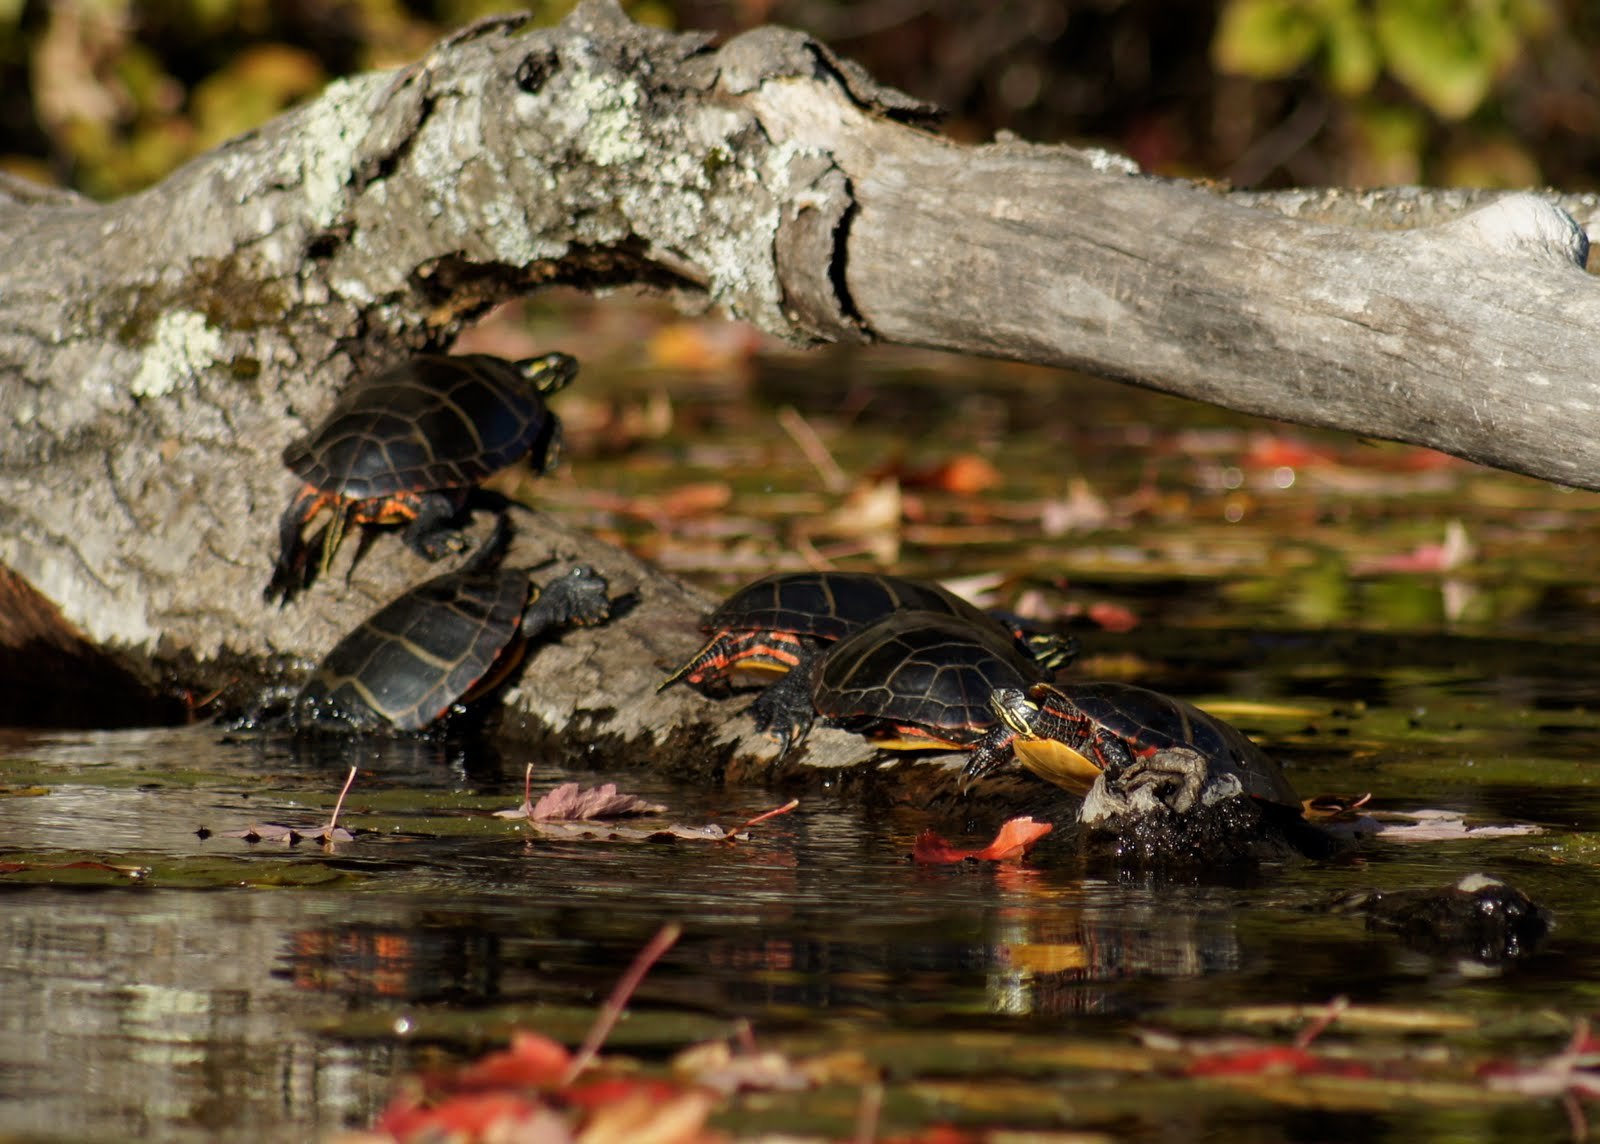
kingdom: Animalia
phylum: Chordata
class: Testudines
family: Emydidae
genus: Chrysemys
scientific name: Chrysemys picta
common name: Painted turtle
